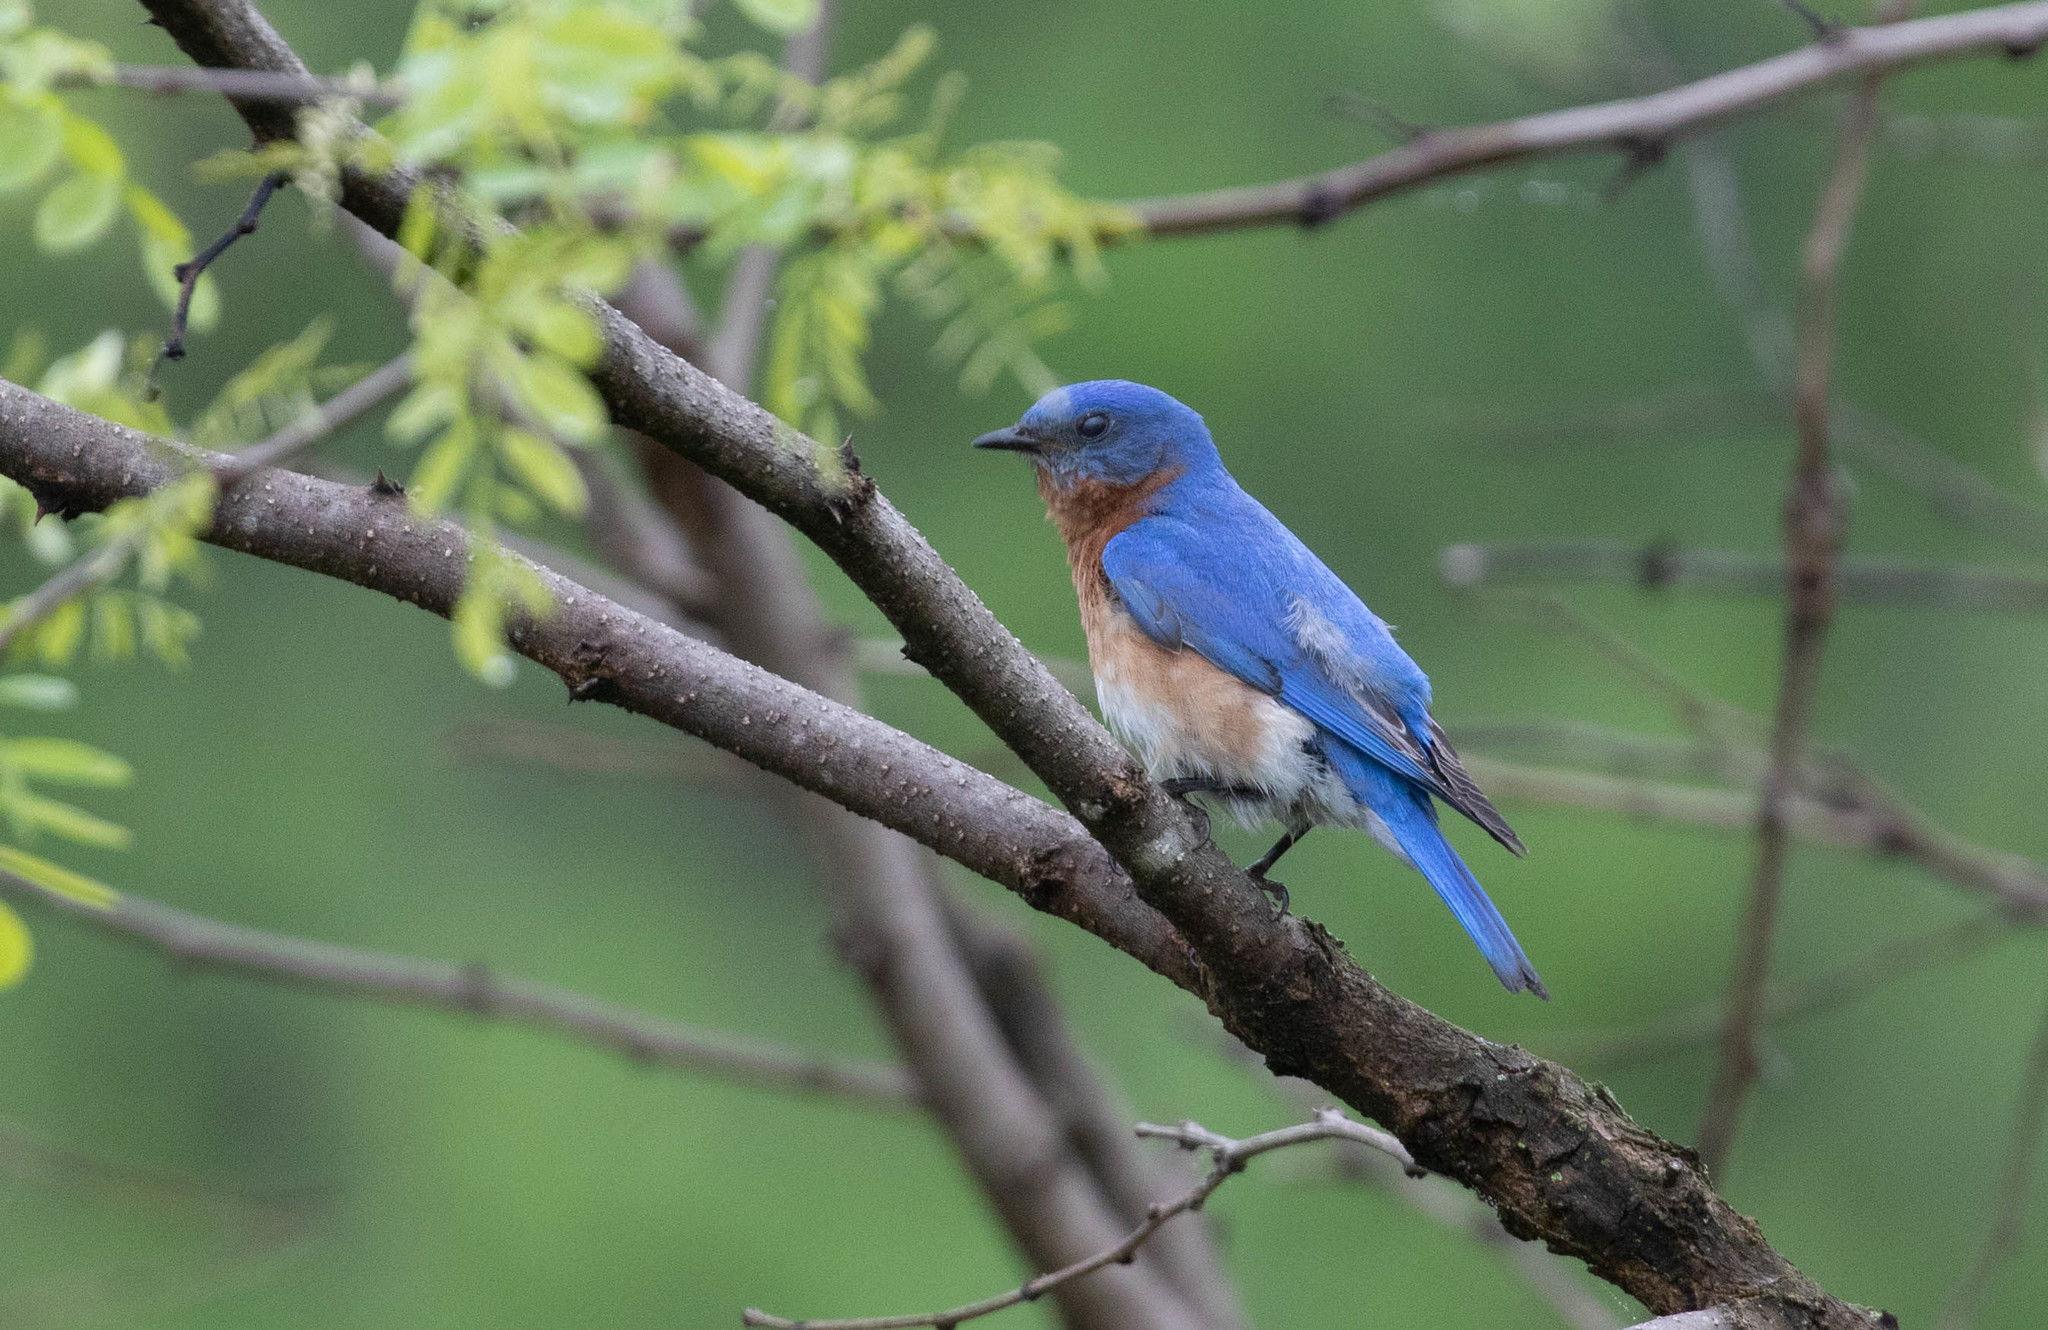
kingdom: Animalia
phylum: Chordata
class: Aves
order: Passeriformes
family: Turdidae
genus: Sialia
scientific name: Sialia sialis
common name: Eastern bluebird
